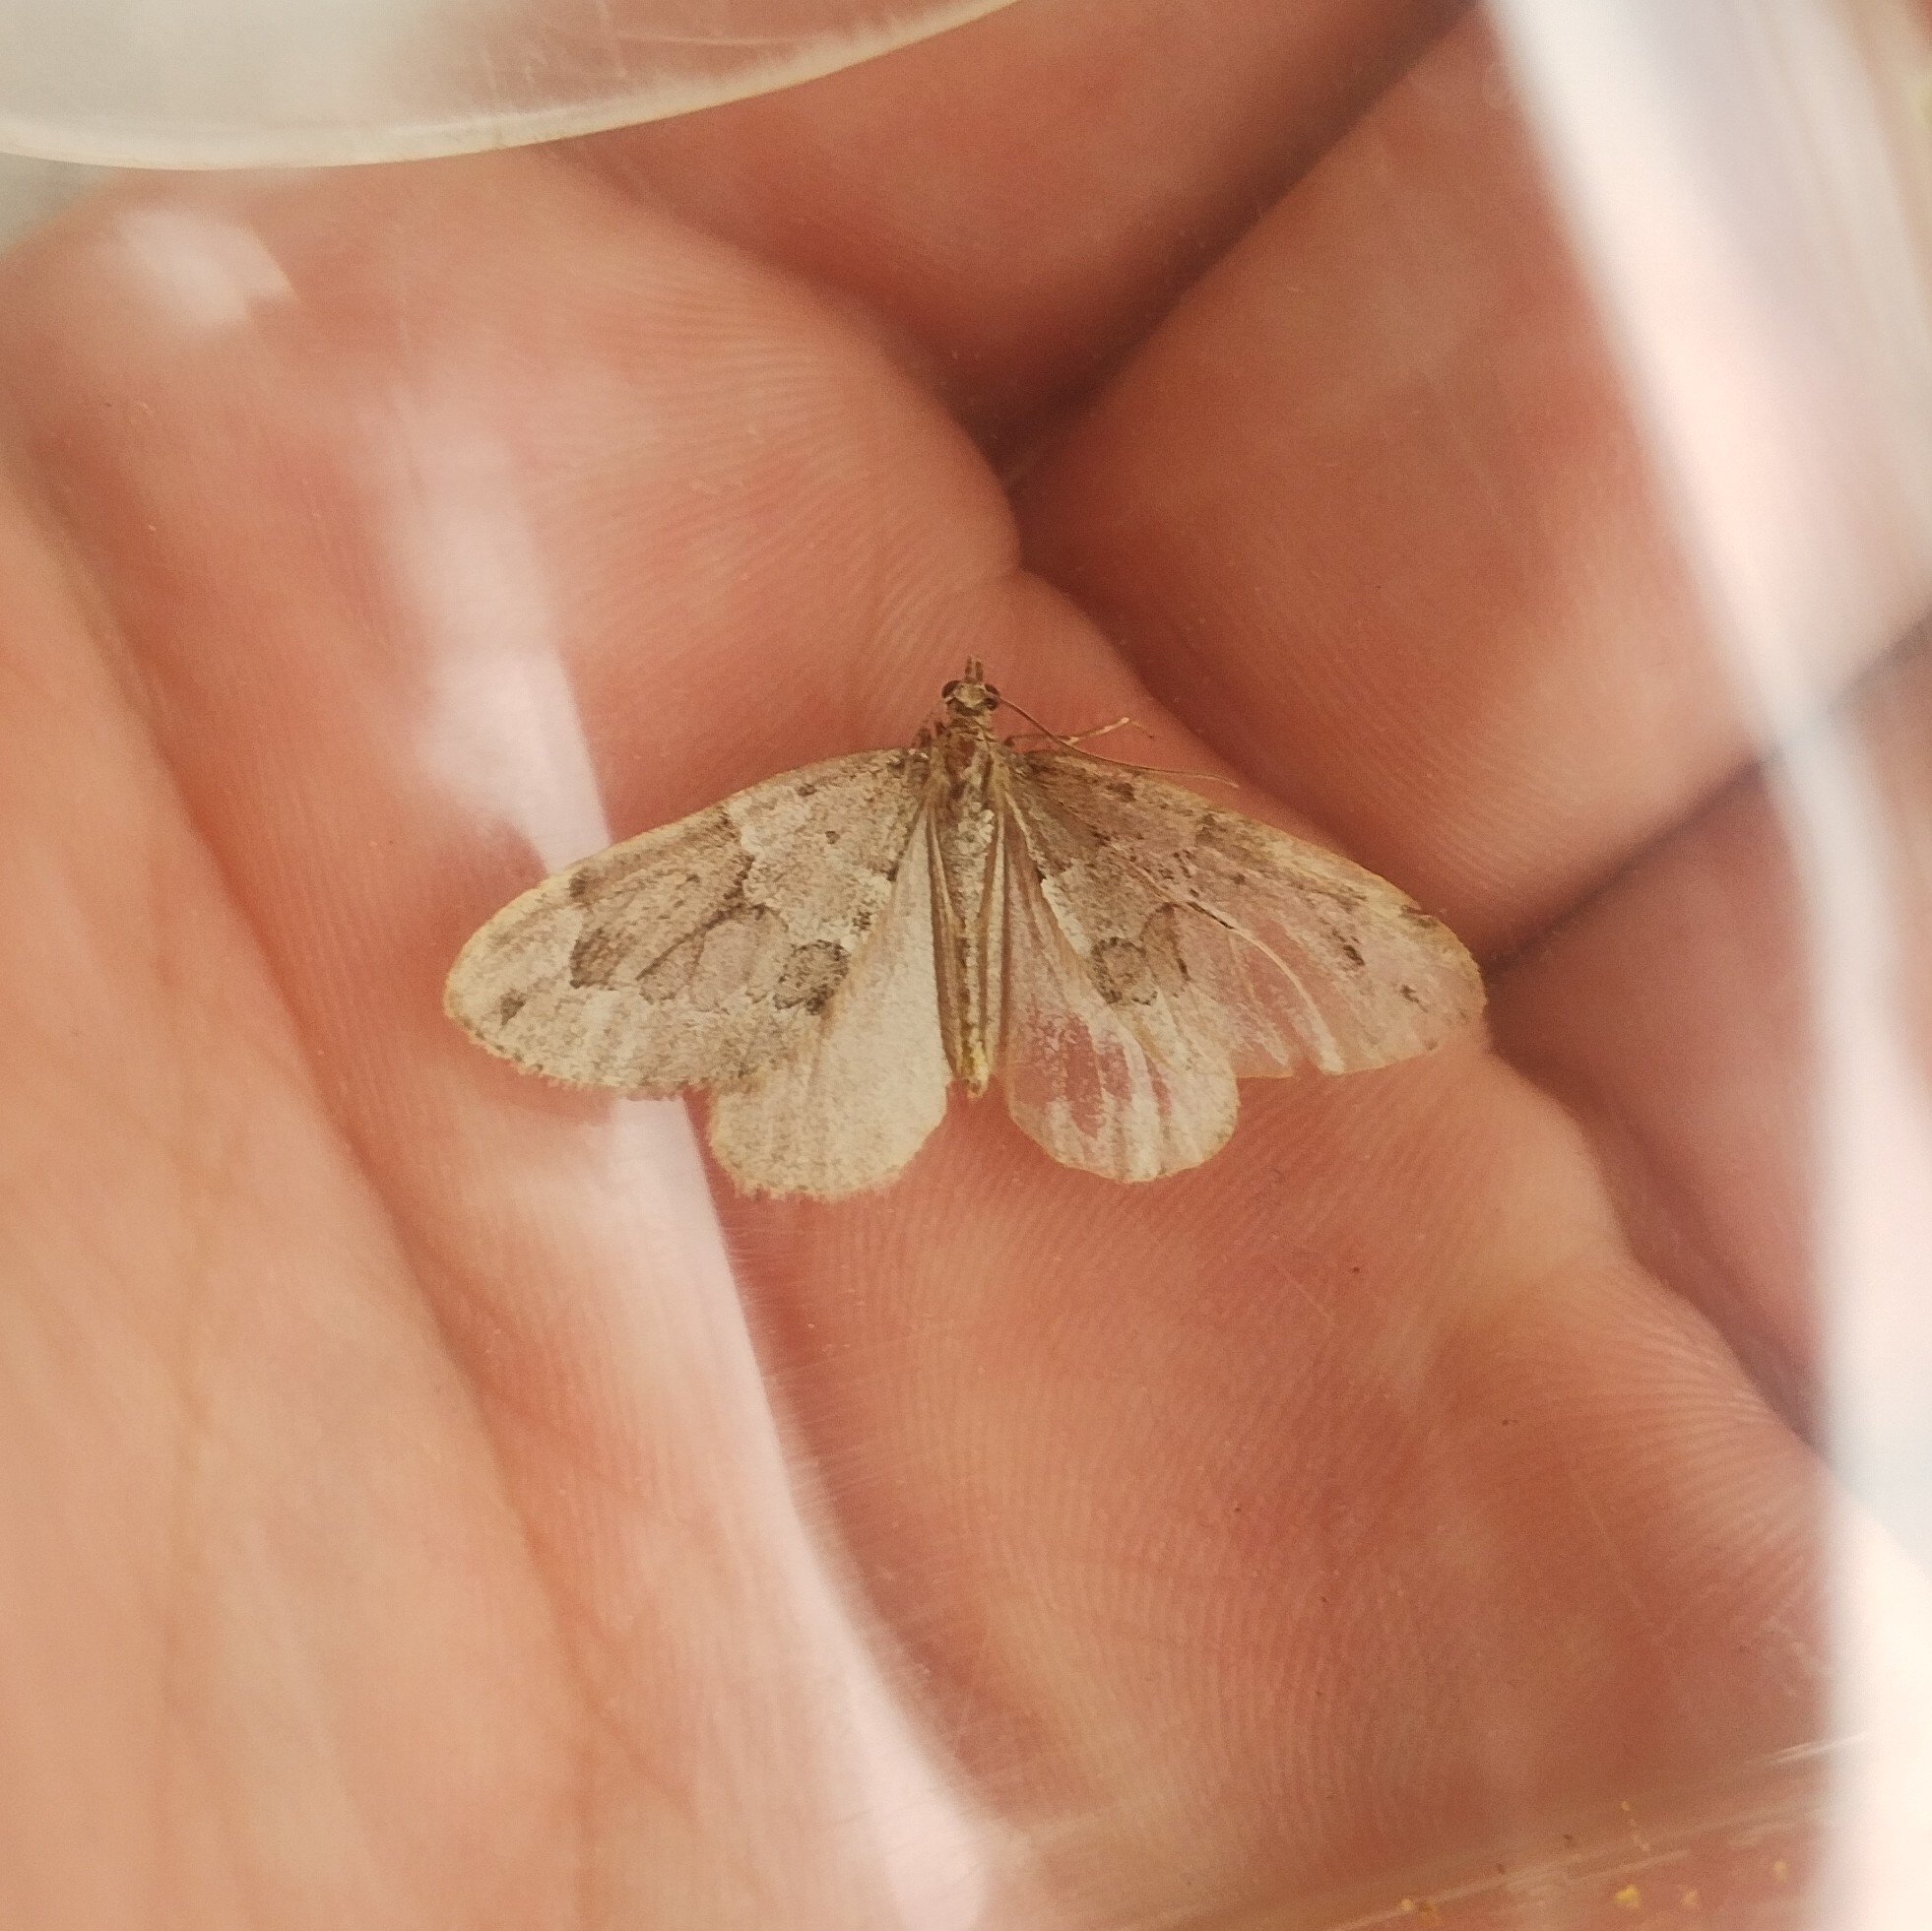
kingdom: Animalia
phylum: Arthropoda
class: Insecta
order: Lepidoptera
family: Geometridae
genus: Thera
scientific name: Thera juniperata
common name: Juniper carpet
